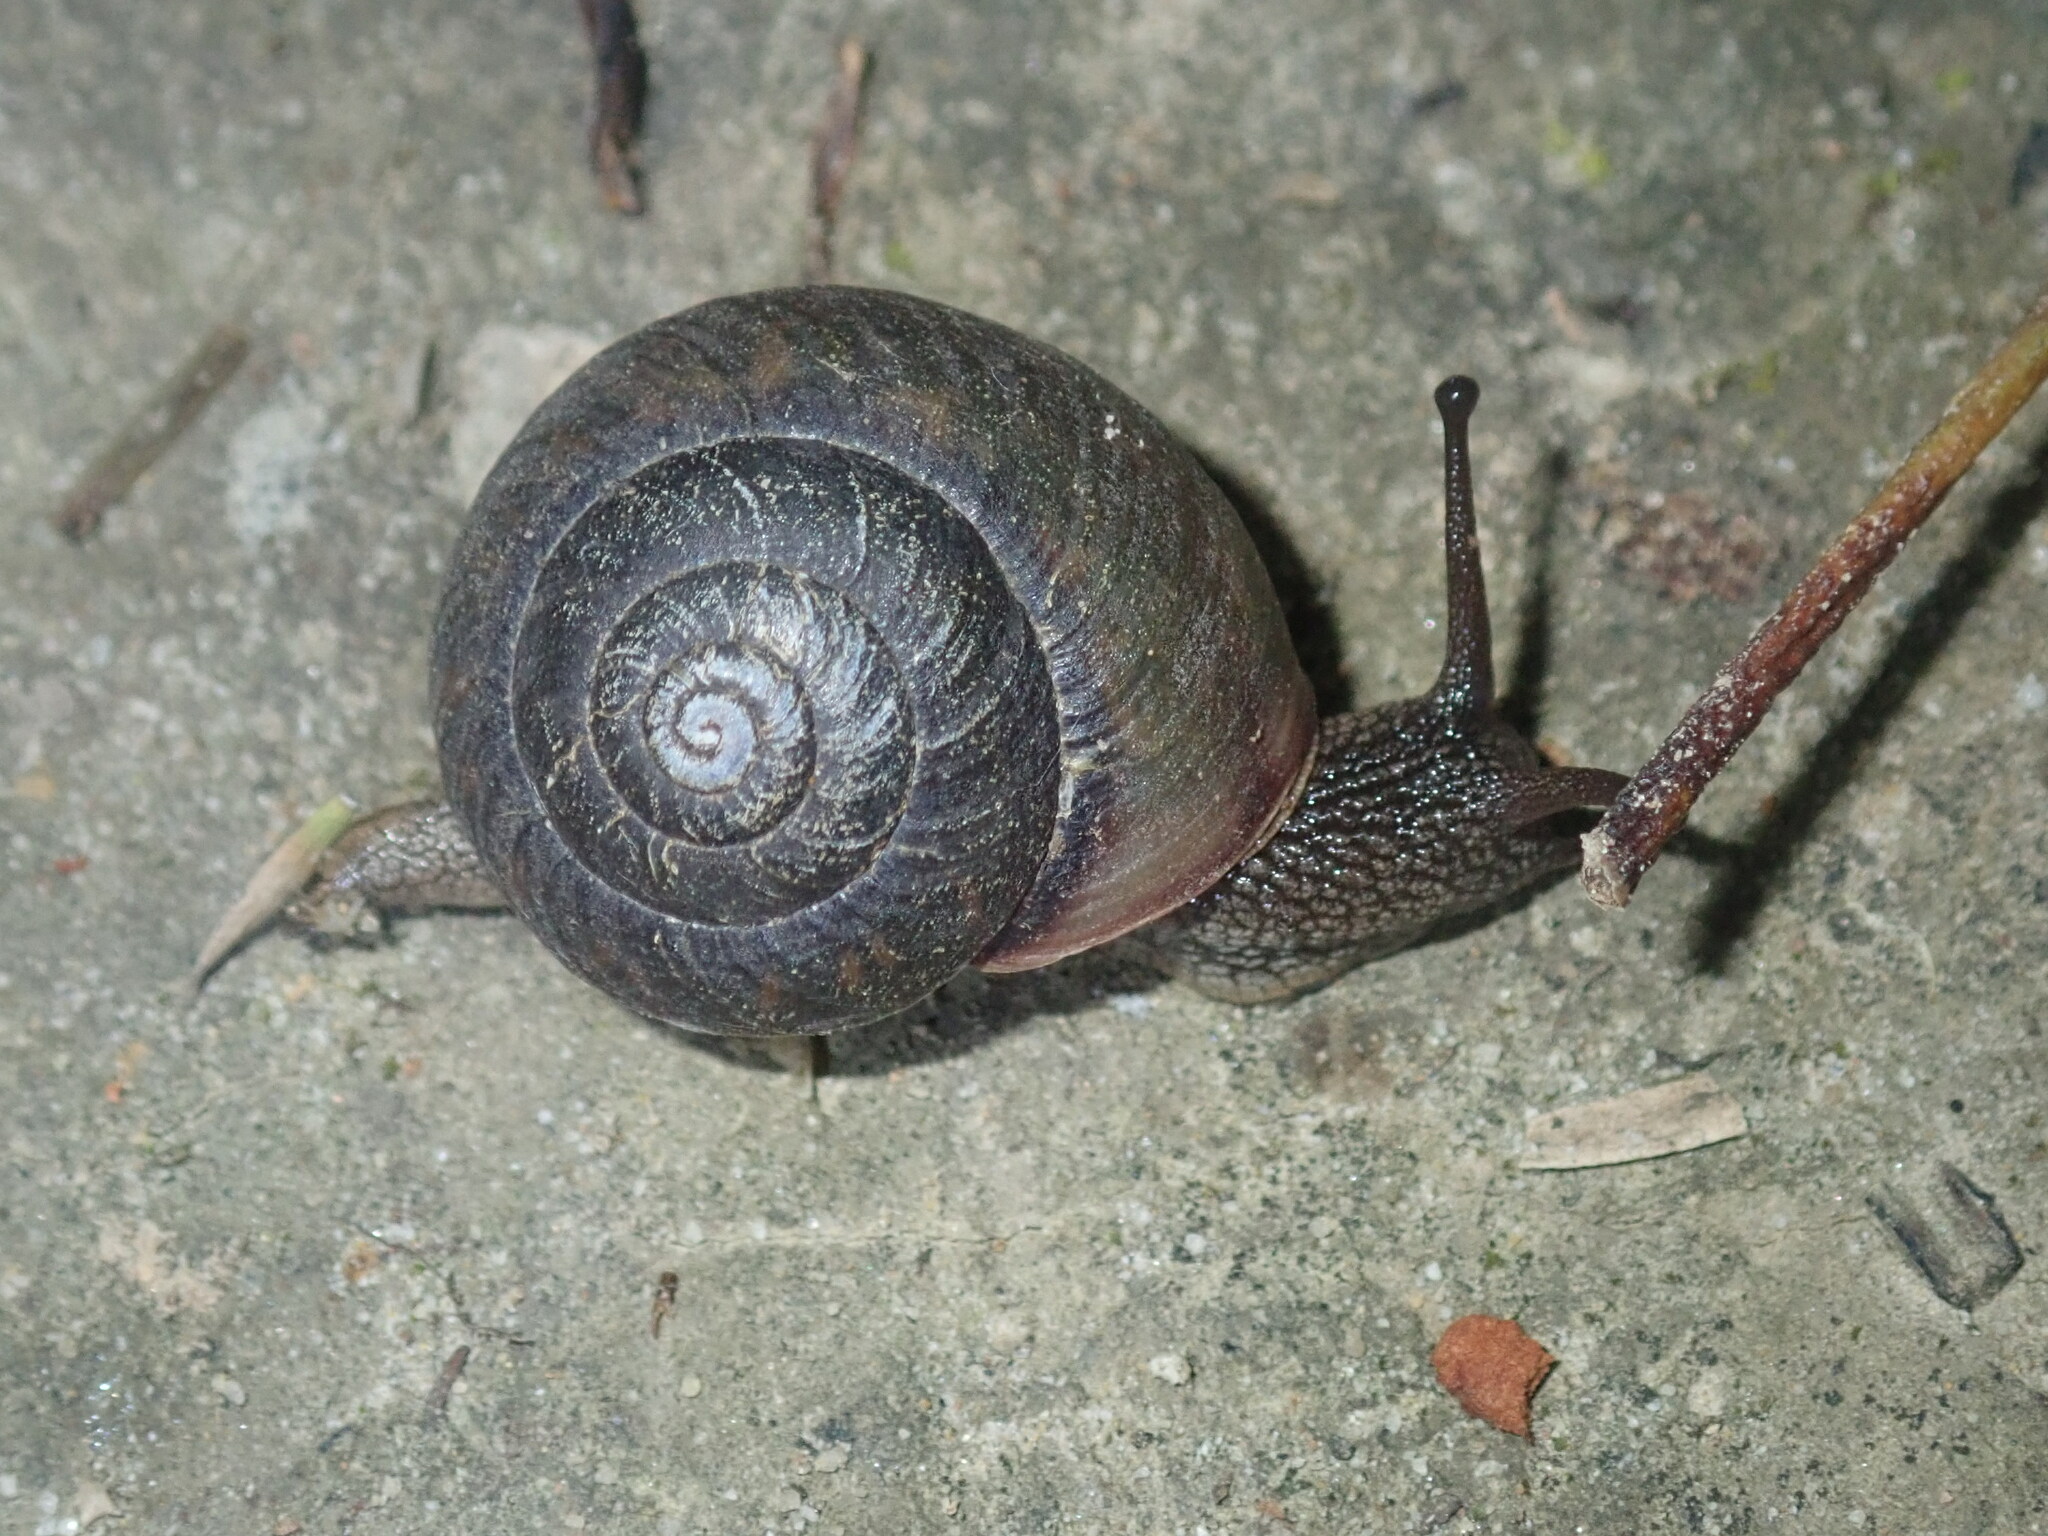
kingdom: Animalia
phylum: Mollusca
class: Gastropoda
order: Stylommatophora
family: Camaenidae
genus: Sauroconcha
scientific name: Sauroconcha sheai
